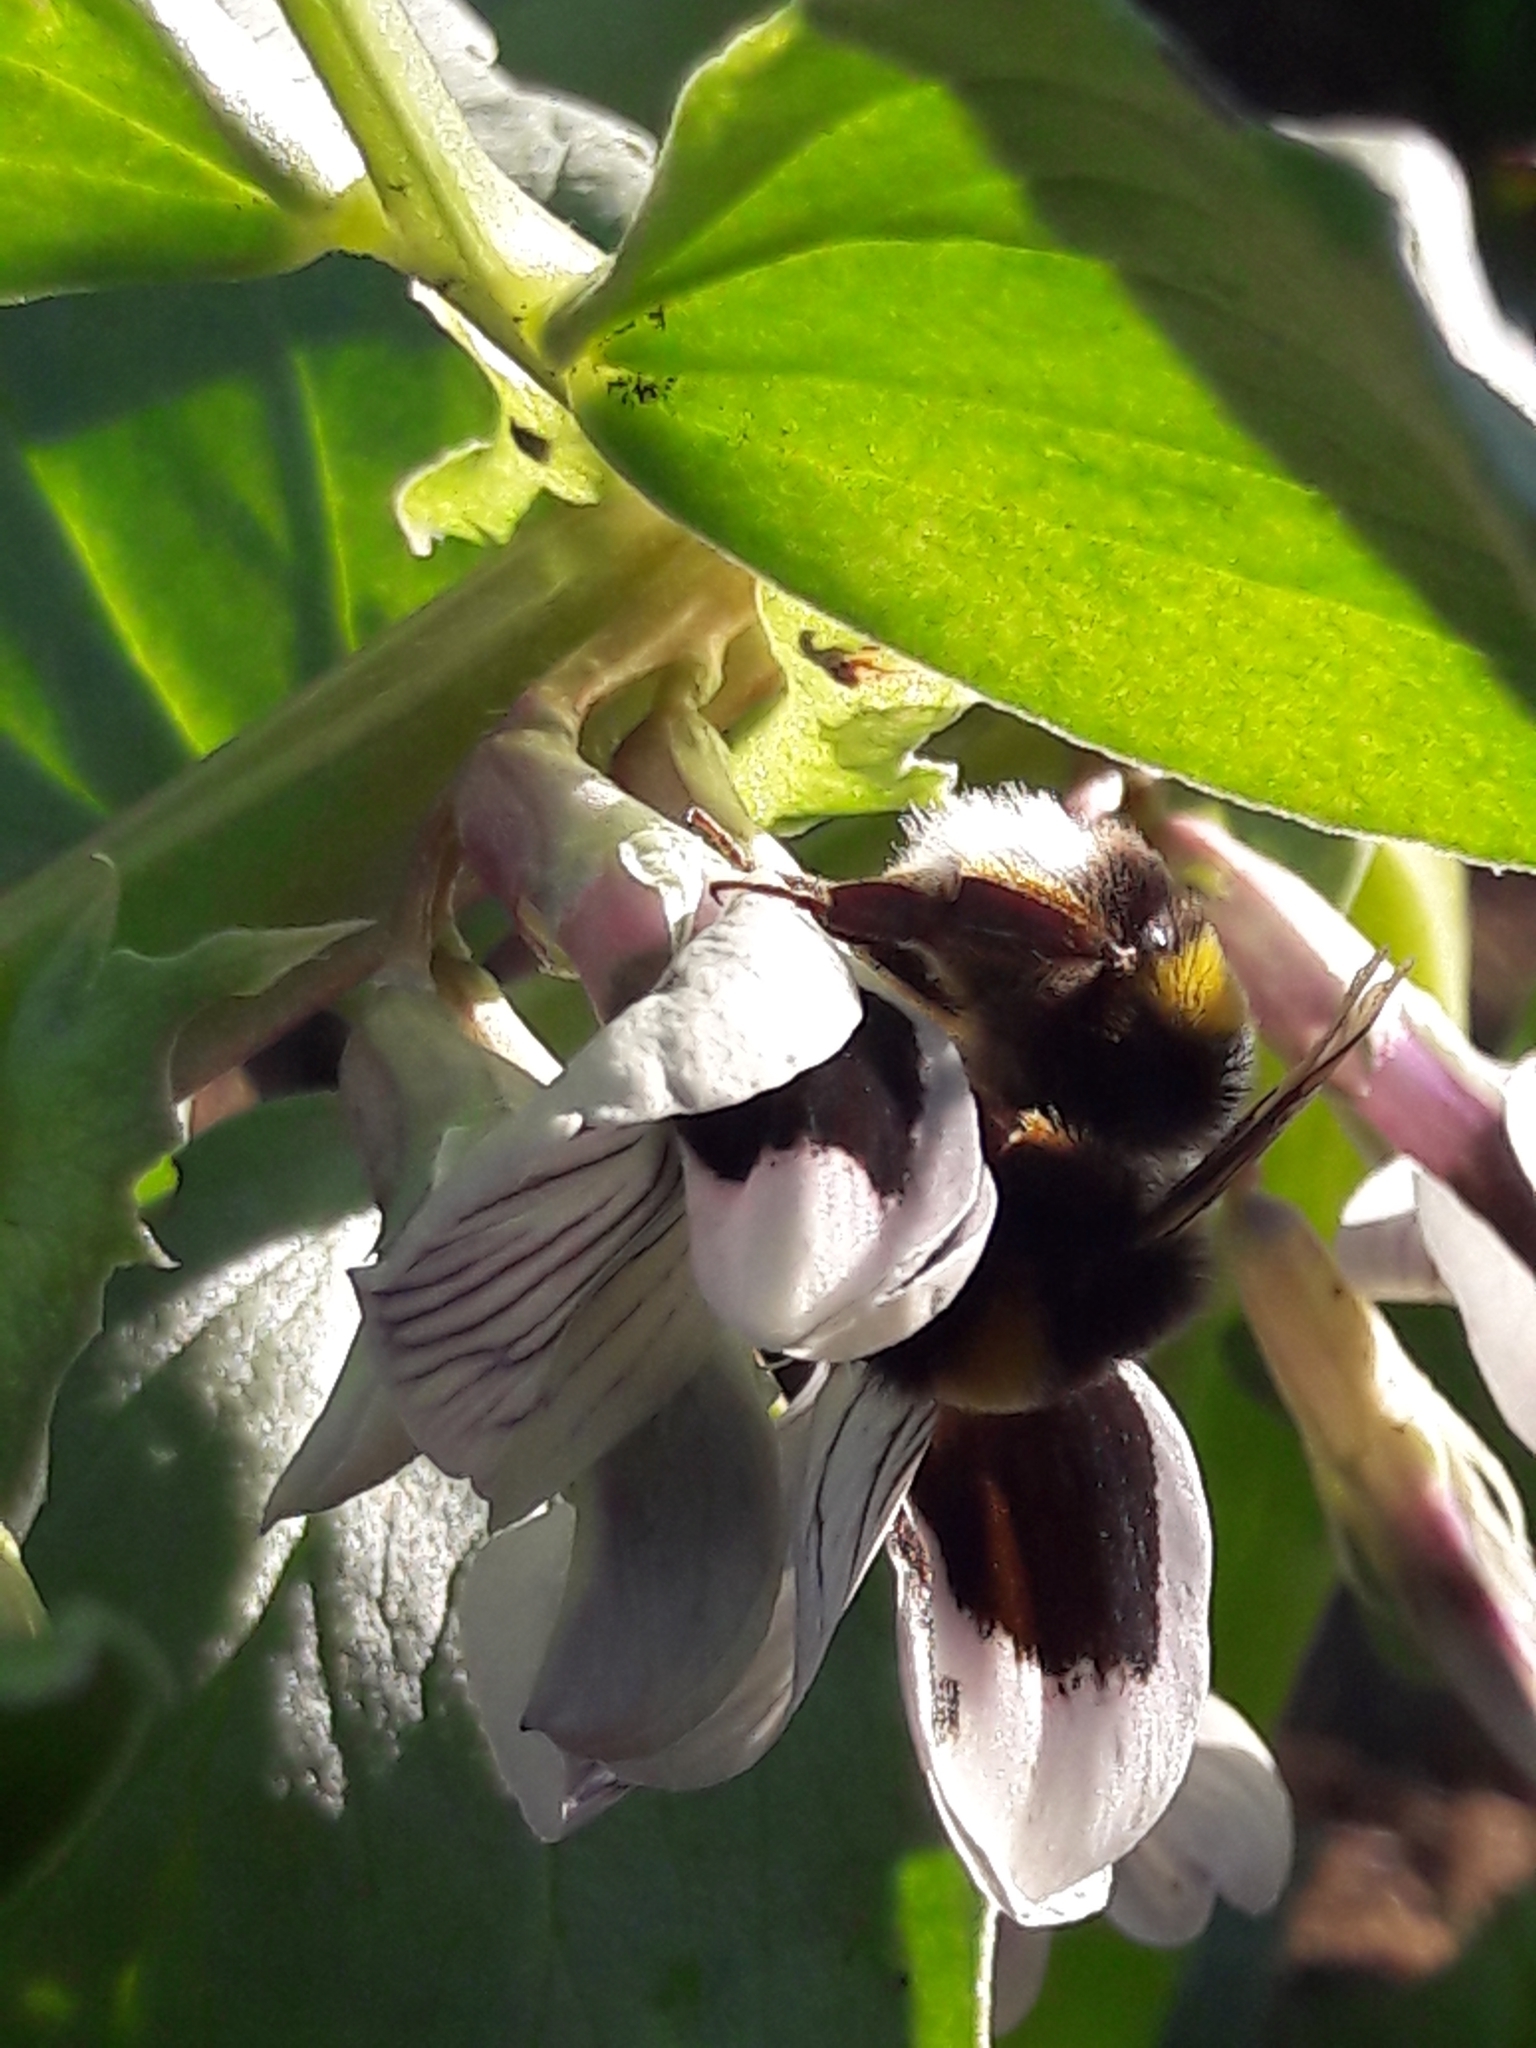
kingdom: Animalia
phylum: Arthropoda
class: Insecta
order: Hymenoptera
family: Apidae
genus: Bombus
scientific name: Bombus terrestris
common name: Buff-tailed bumblebee
